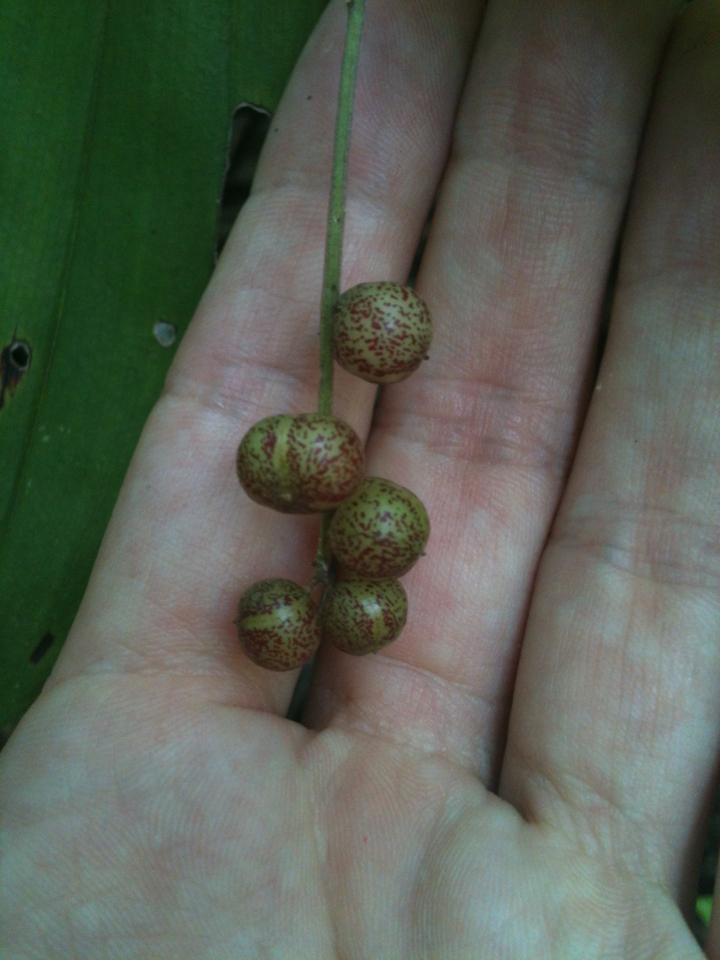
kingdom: Plantae
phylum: Tracheophyta
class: Liliopsida
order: Asparagales
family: Asparagaceae
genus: Maianthemum
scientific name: Maianthemum racemosum
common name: False spikenard
